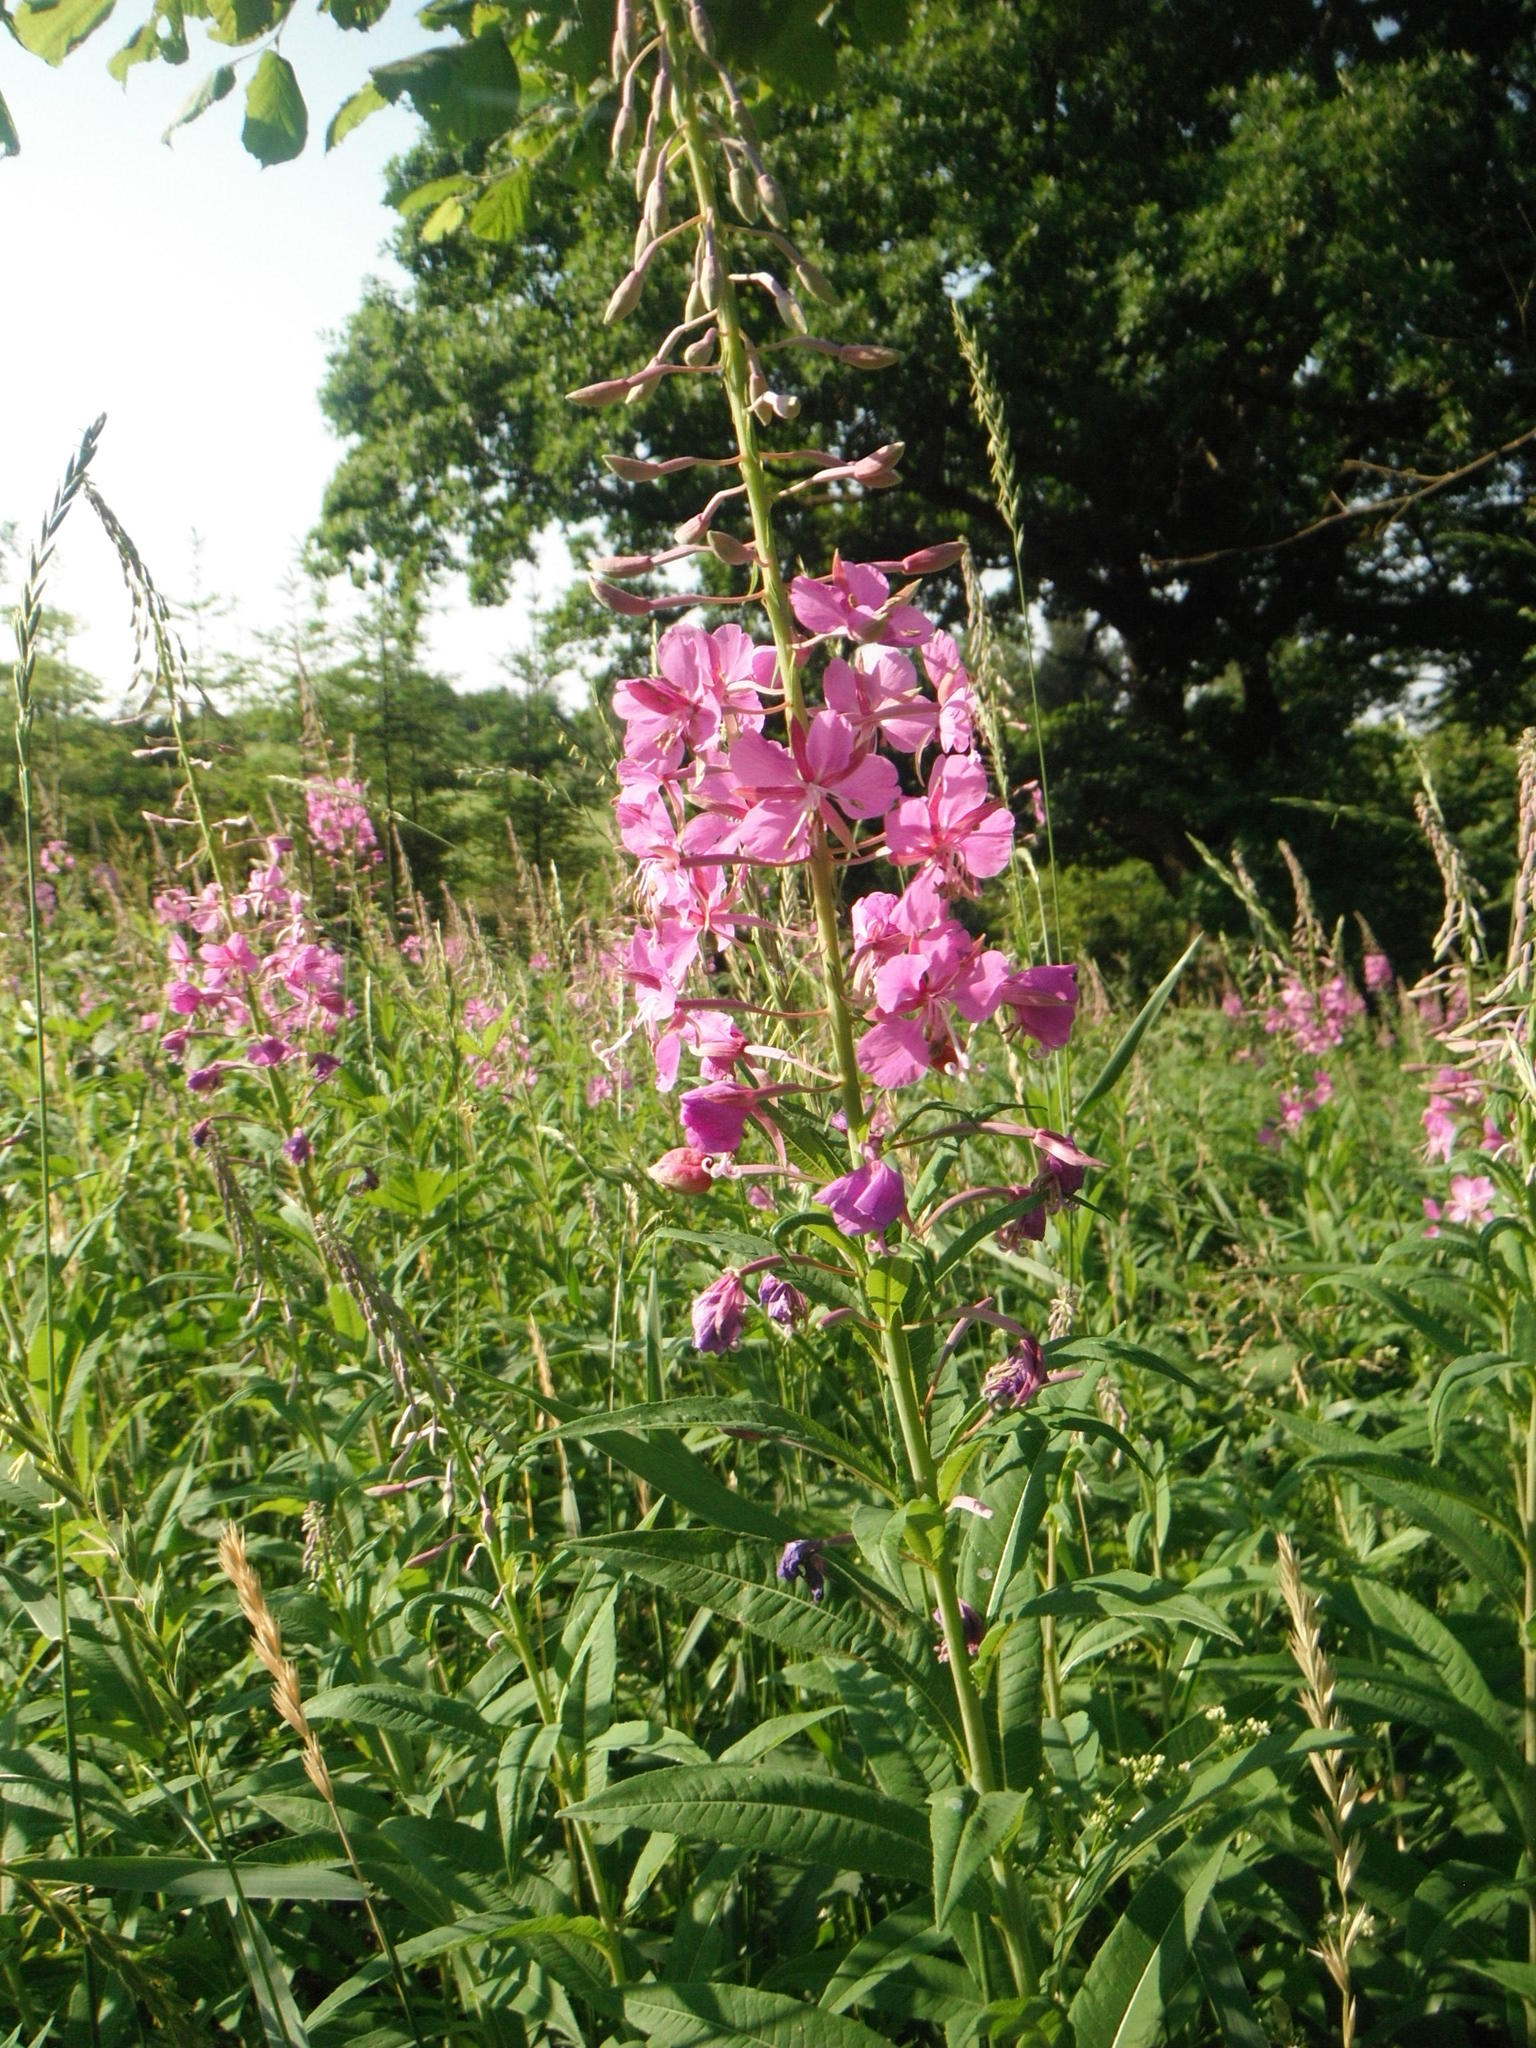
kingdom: Plantae
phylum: Tracheophyta
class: Magnoliopsida
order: Myrtales
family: Onagraceae
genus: Chamaenerion
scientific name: Chamaenerion angustifolium
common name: Fireweed
